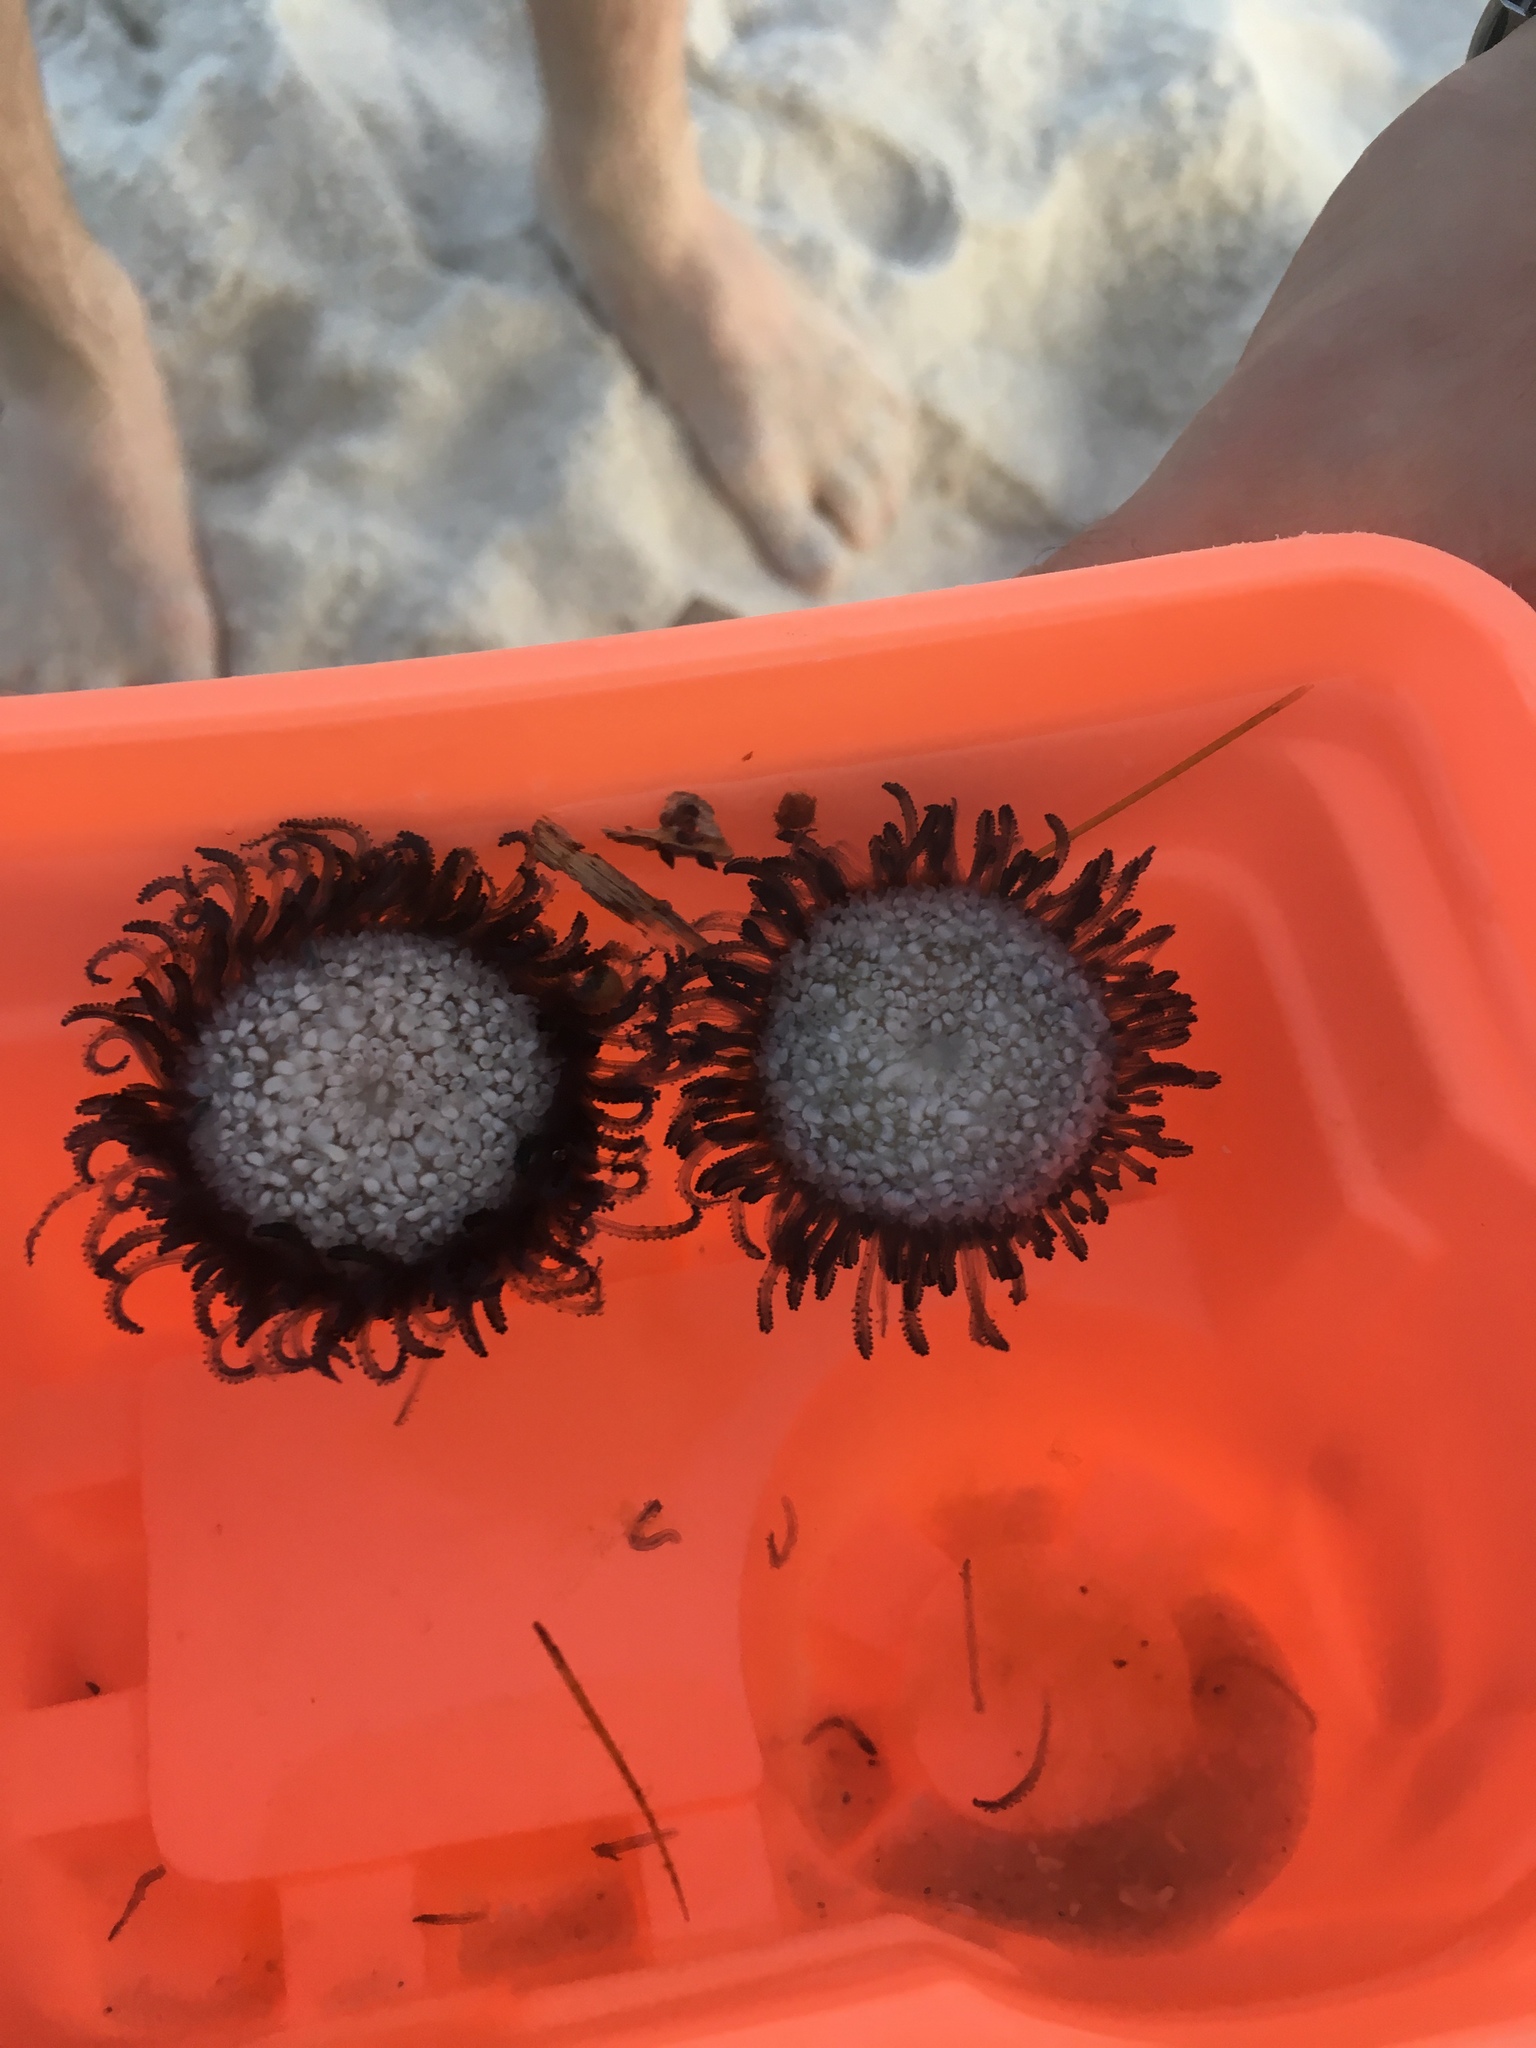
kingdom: Animalia
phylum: Cnidaria
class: Hydrozoa
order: Anthoathecata
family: Porpitidae
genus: Porpita
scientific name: Porpita porpita
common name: Blue button
